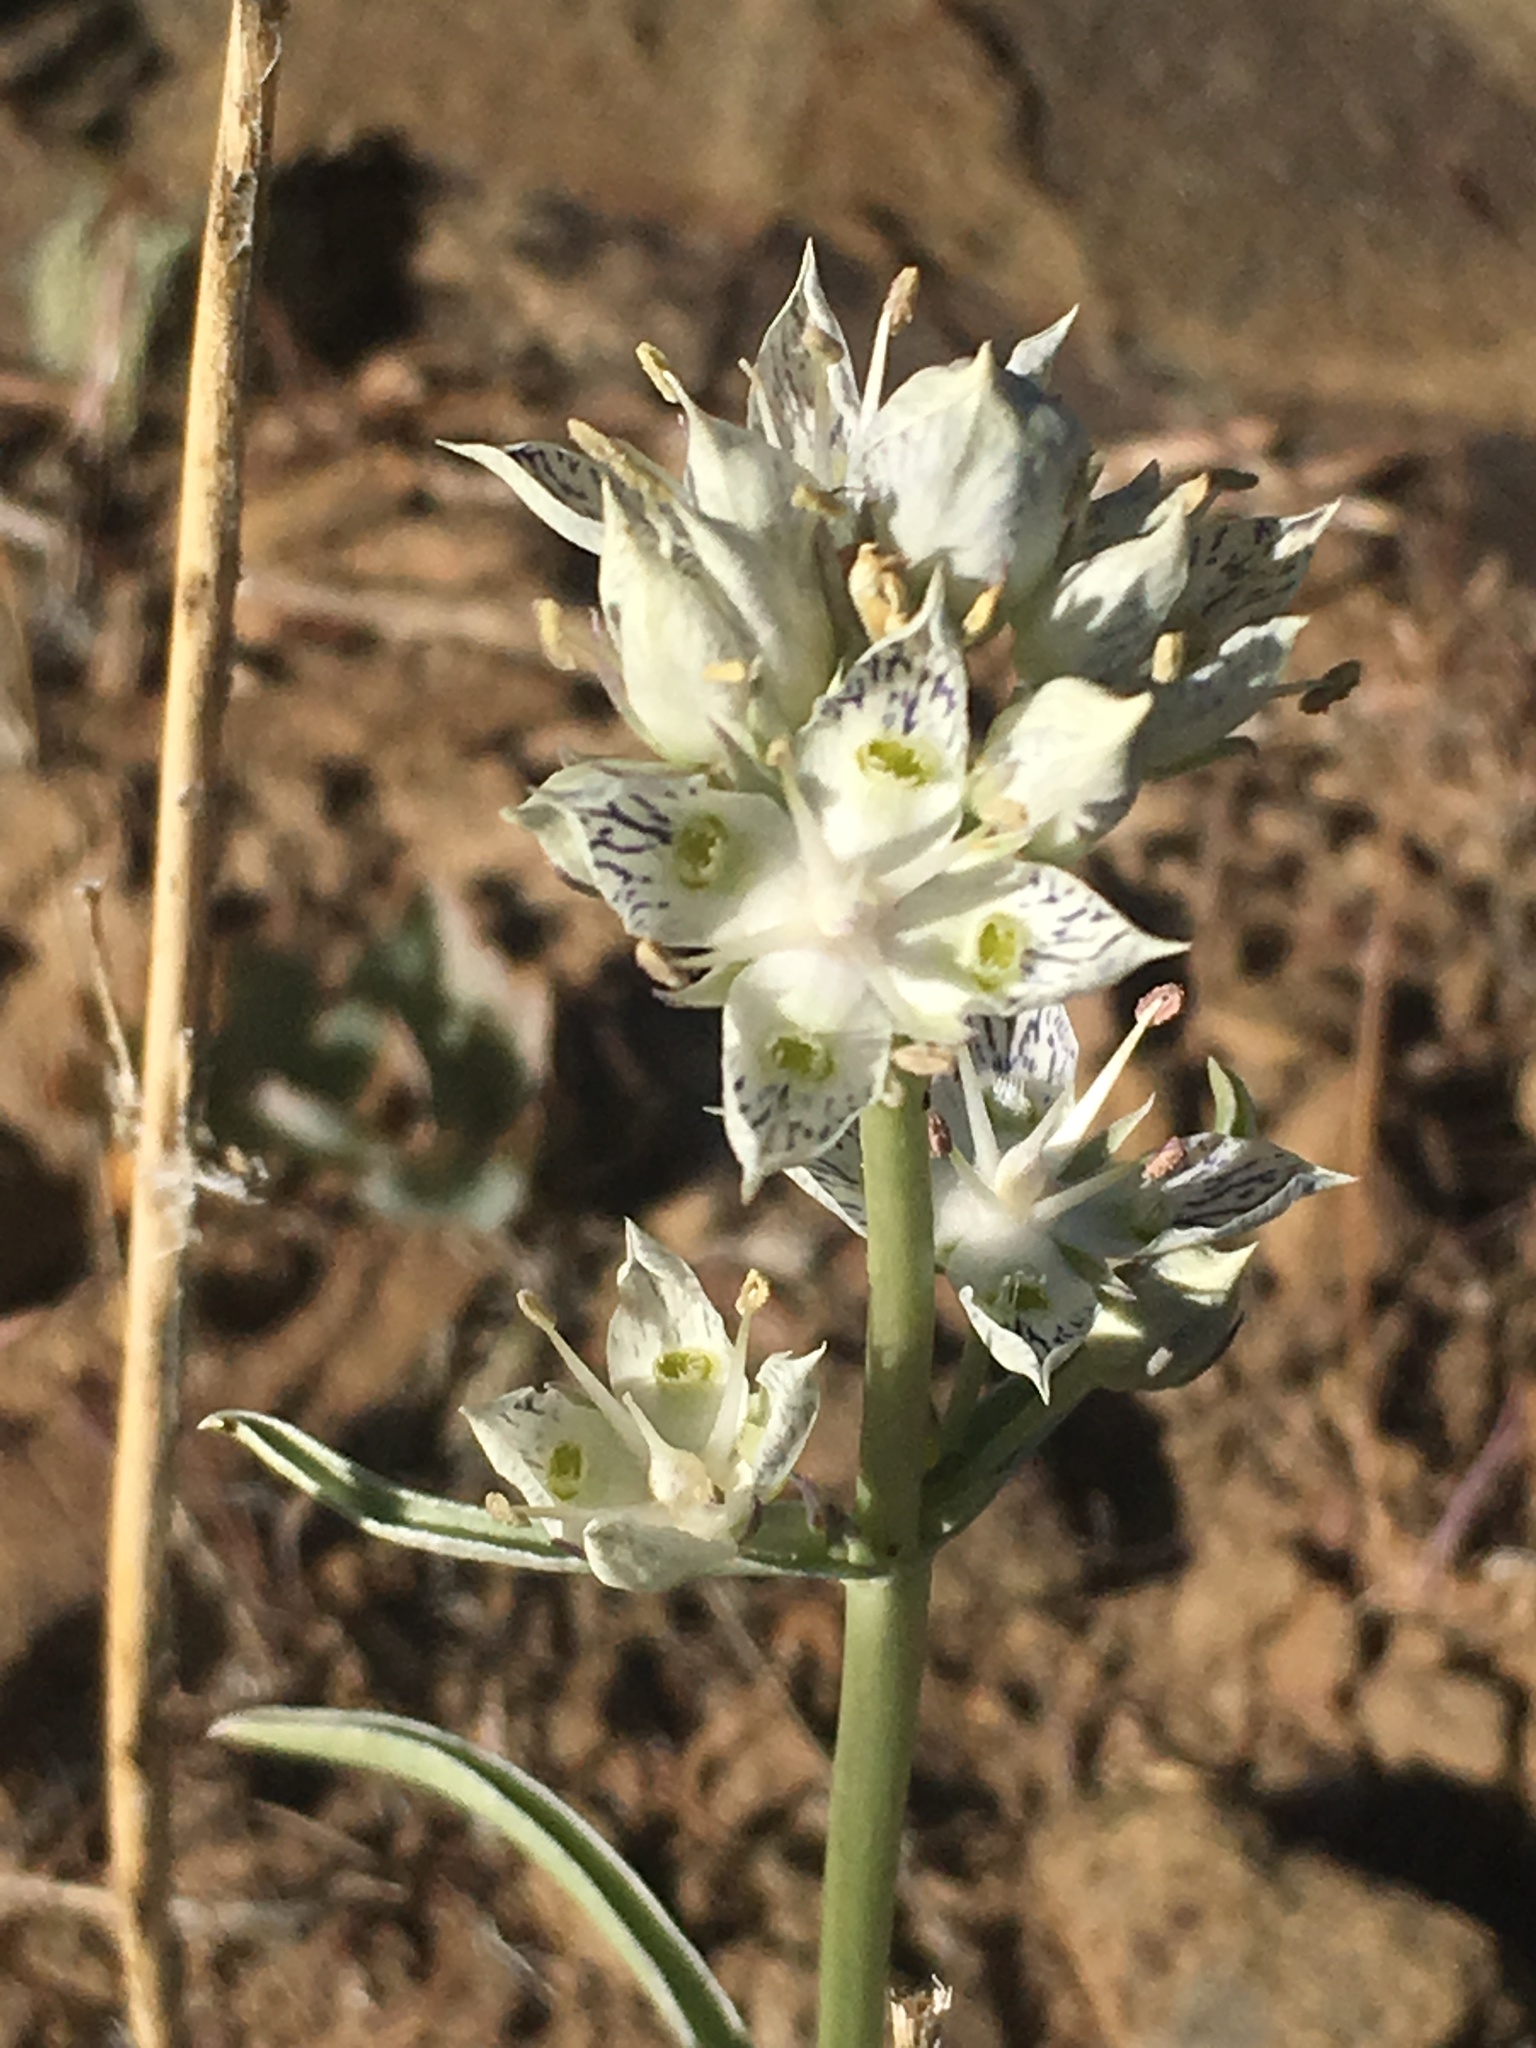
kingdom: Plantae
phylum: Tracheophyta
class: Magnoliopsida
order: Gentianales
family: Gentianaceae
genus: Frasera
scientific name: Frasera neglecta
